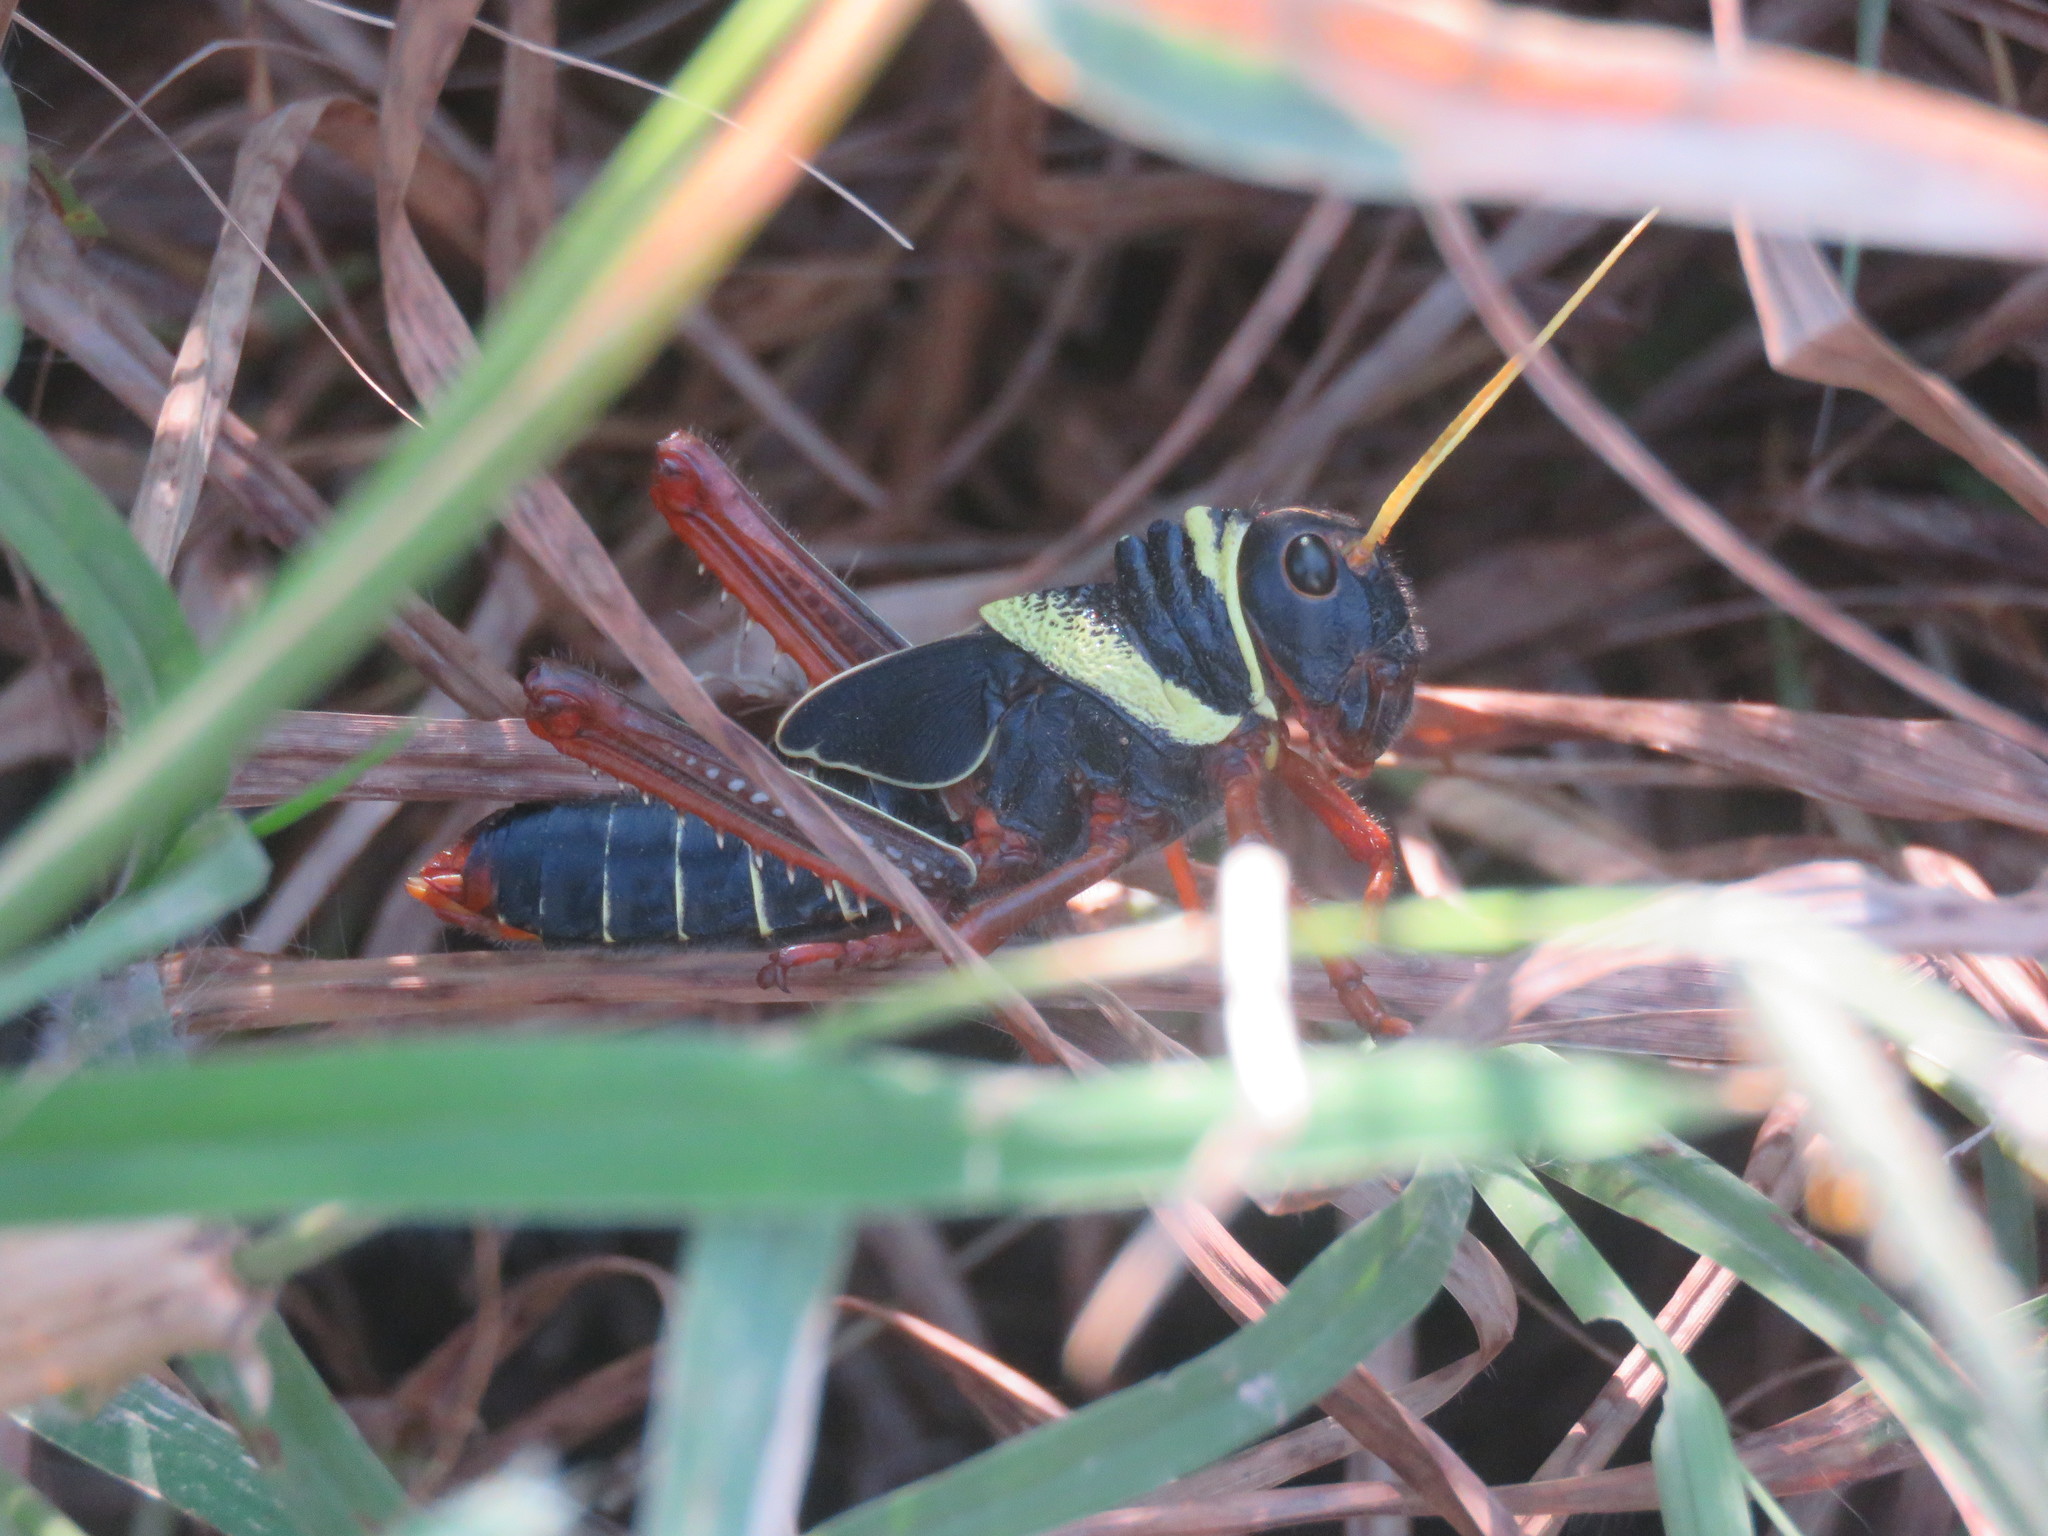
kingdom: Animalia
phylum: Arthropoda
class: Insecta
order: Orthoptera
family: Romaleidae
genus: Tropidacris
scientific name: Tropidacris collaris
